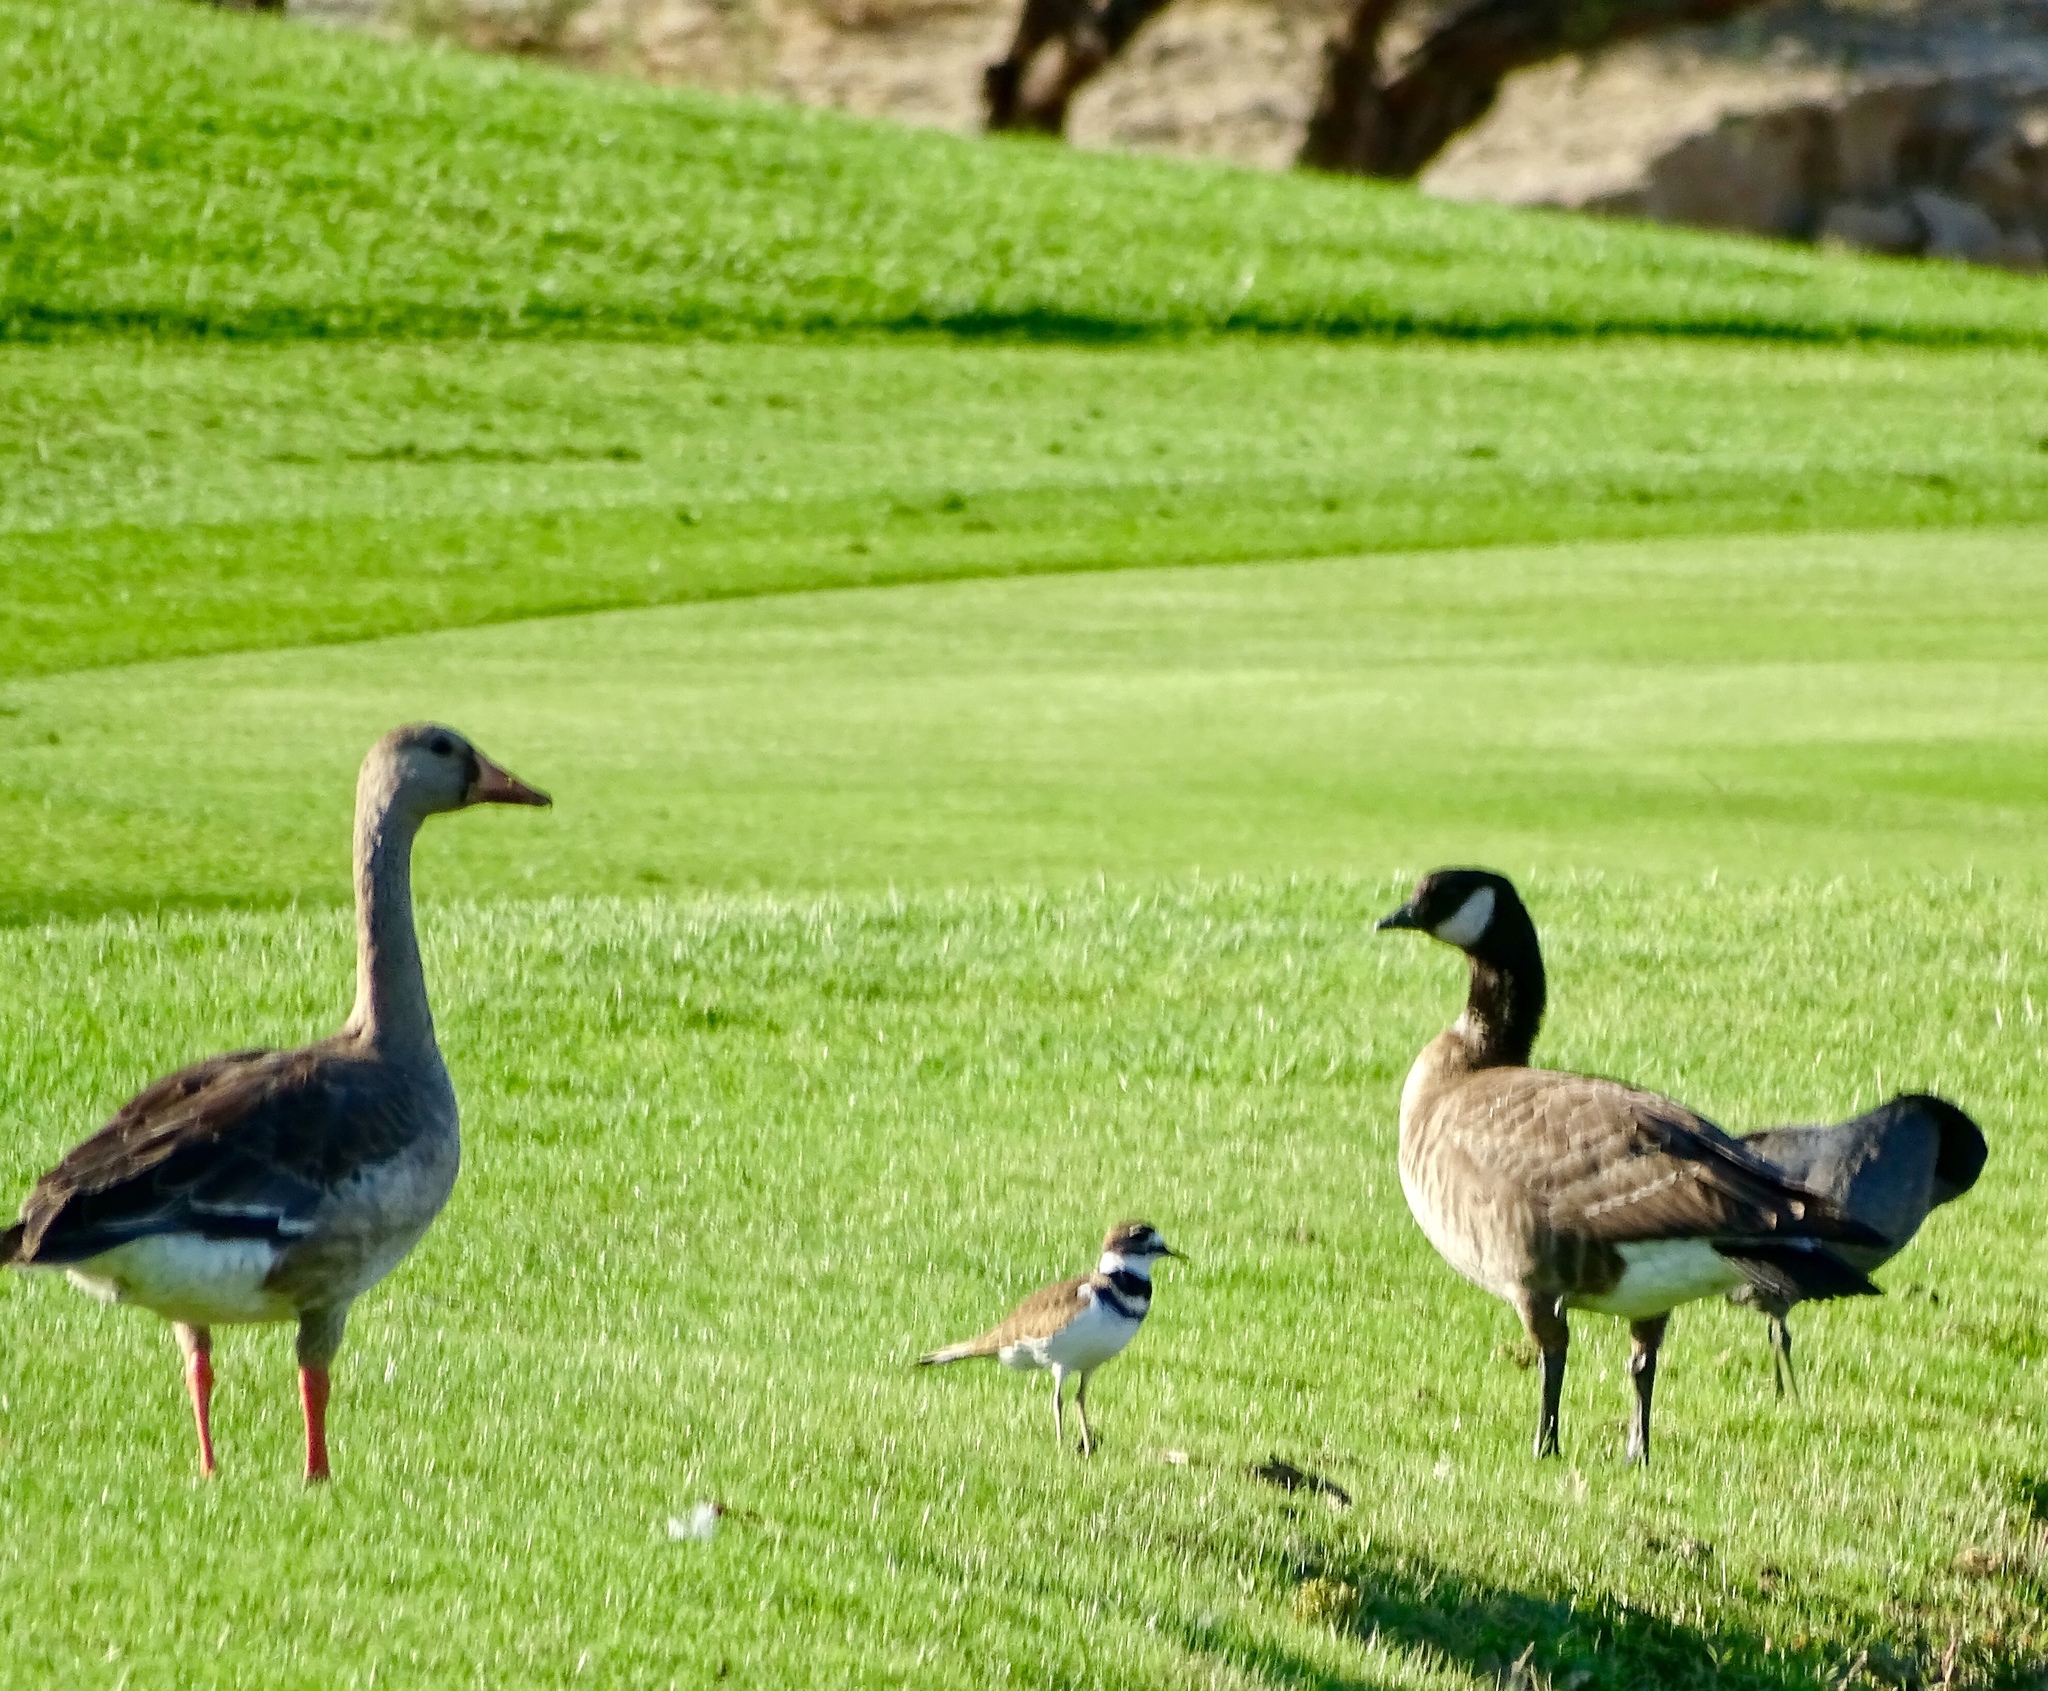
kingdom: Animalia
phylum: Chordata
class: Aves
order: Anseriformes
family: Anatidae
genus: Anser
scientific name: Anser albifrons
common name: Greater white-fronted goose
